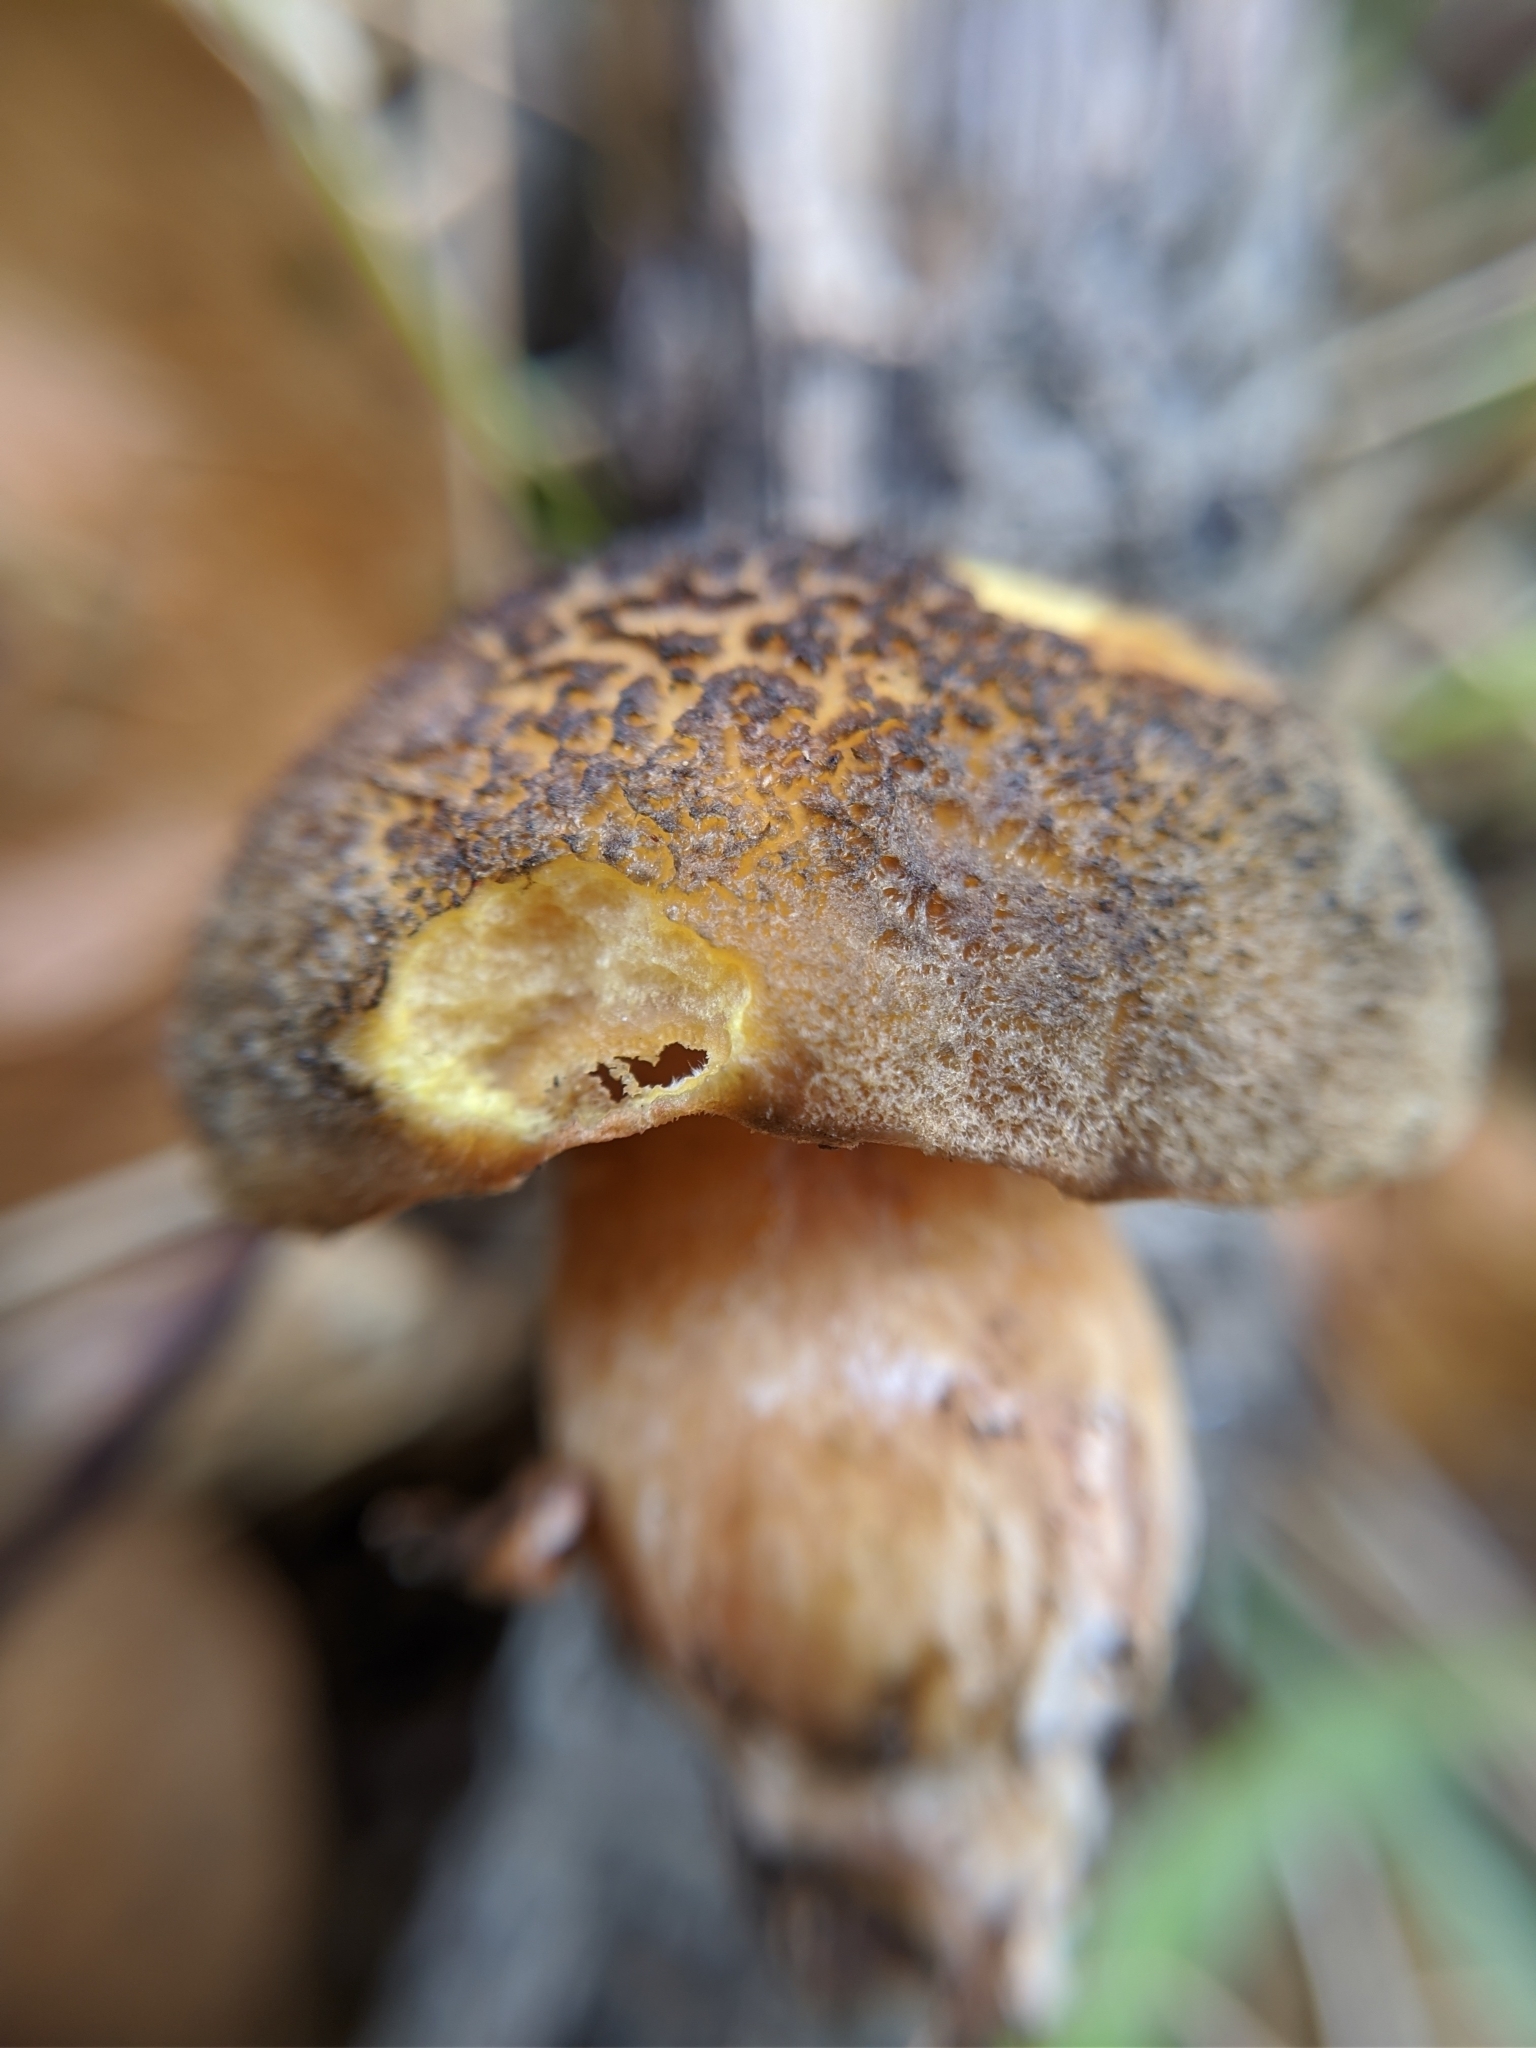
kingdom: Fungi
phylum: Basidiomycota
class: Agaricomycetes
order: Boletales
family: Suillaceae
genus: Suillus
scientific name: Suillus fuscotomentosus
